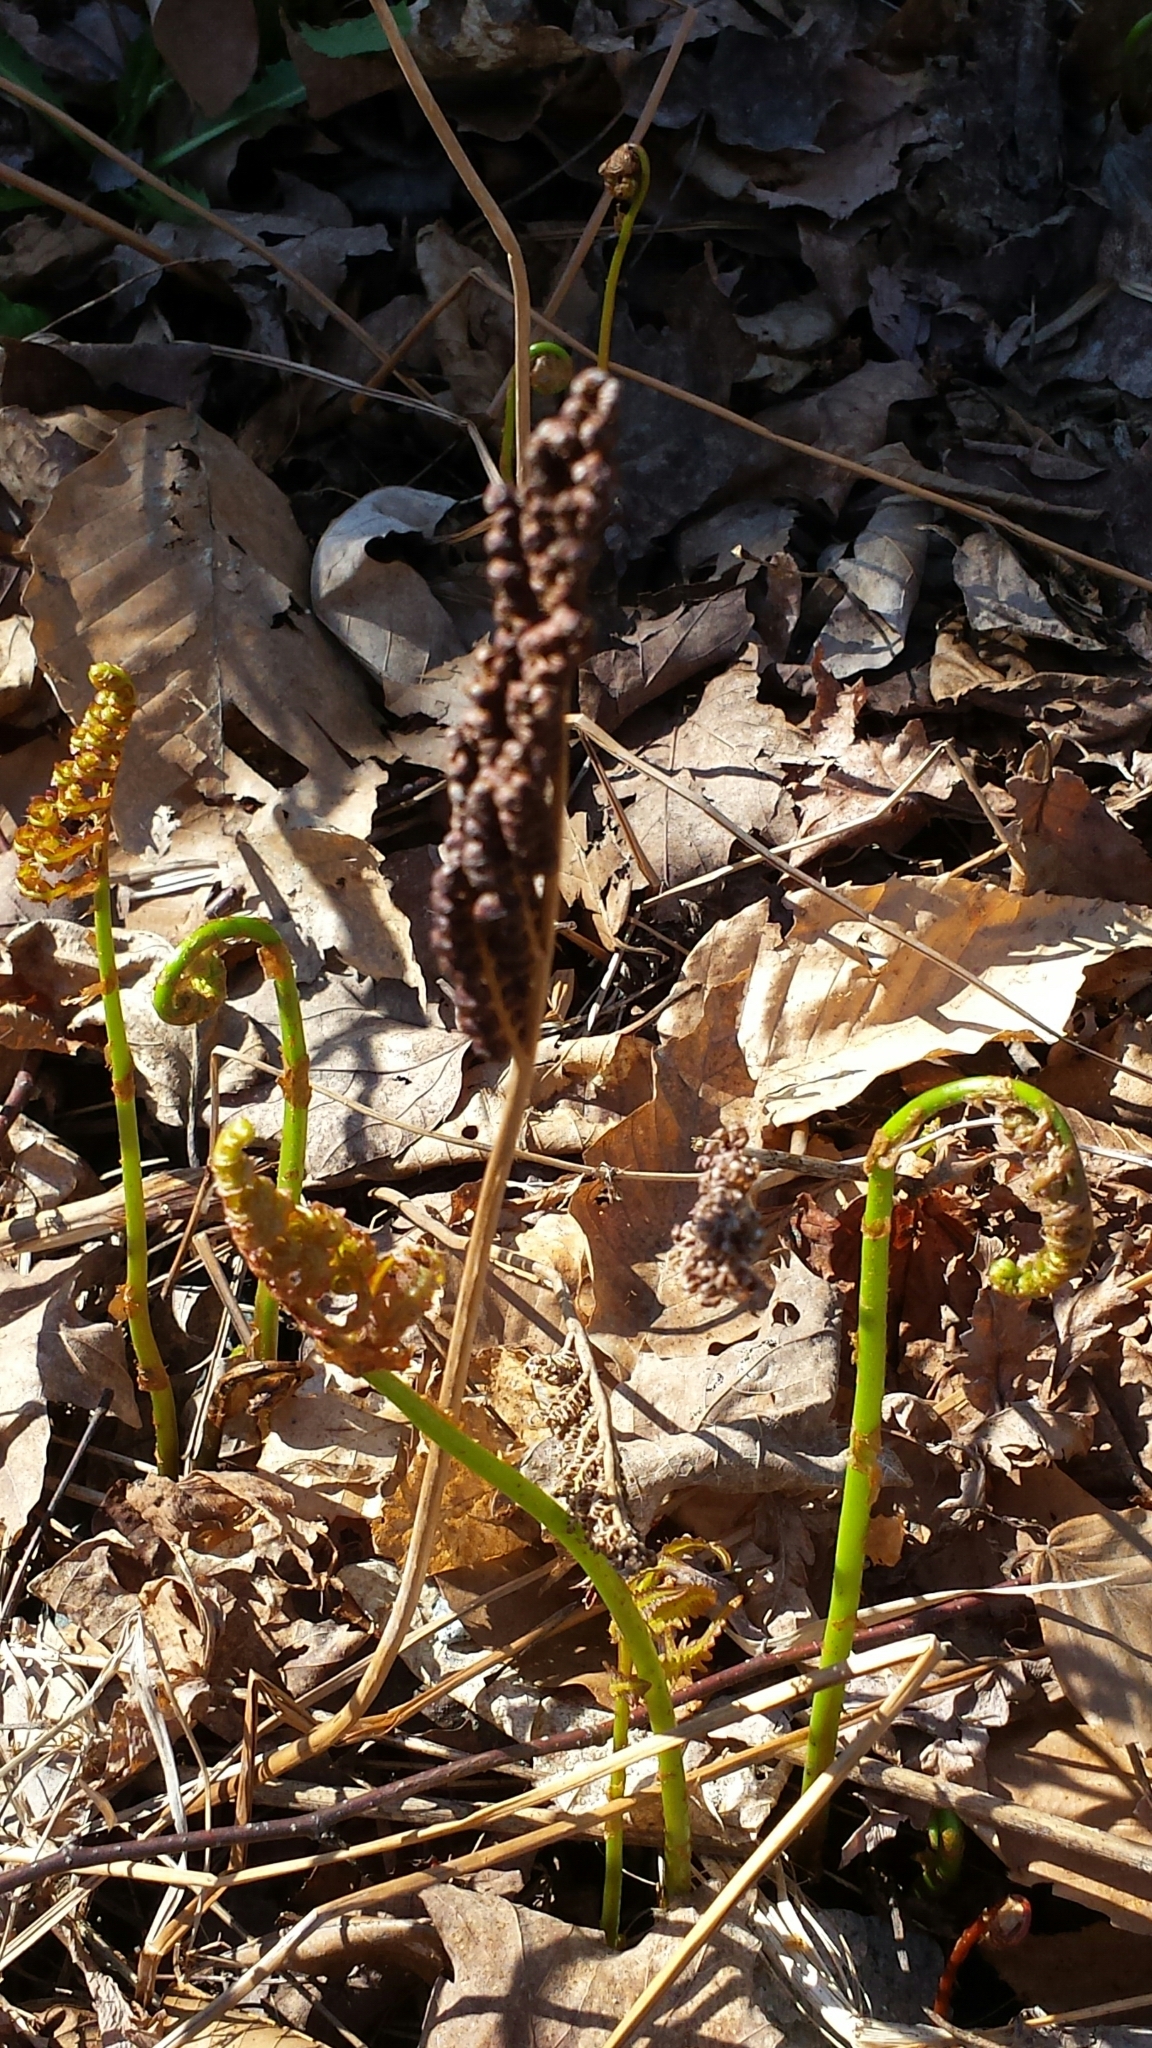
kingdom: Plantae
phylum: Tracheophyta
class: Polypodiopsida
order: Polypodiales
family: Onocleaceae
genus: Onoclea
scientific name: Onoclea sensibilis
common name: Sensitive fern
